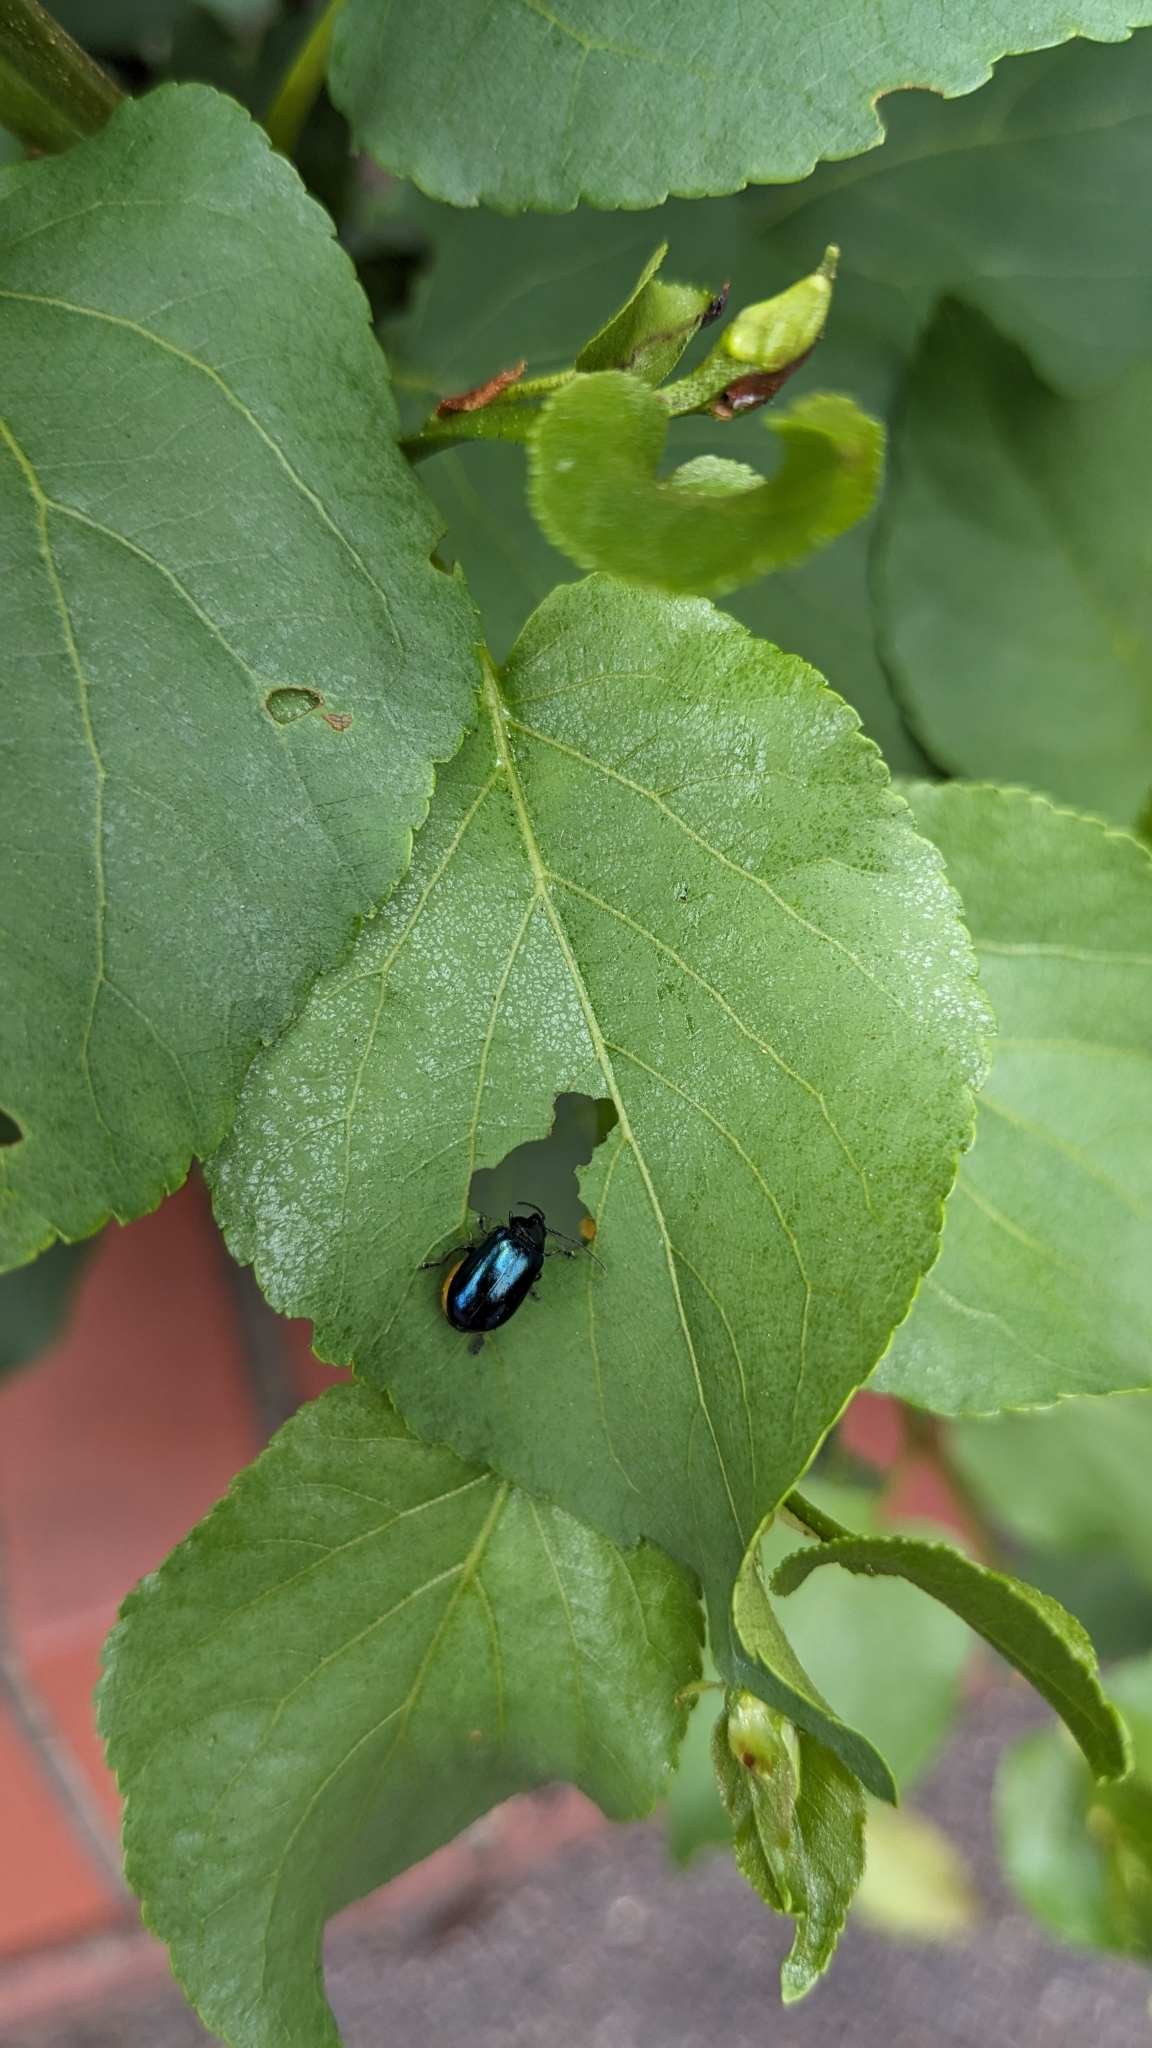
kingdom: Animalia
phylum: Arthropoda
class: Insecta
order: Coleoptera
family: Chrysomelidae
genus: Agelastica
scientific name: Agelastica alni
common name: Alder leaf beetle
